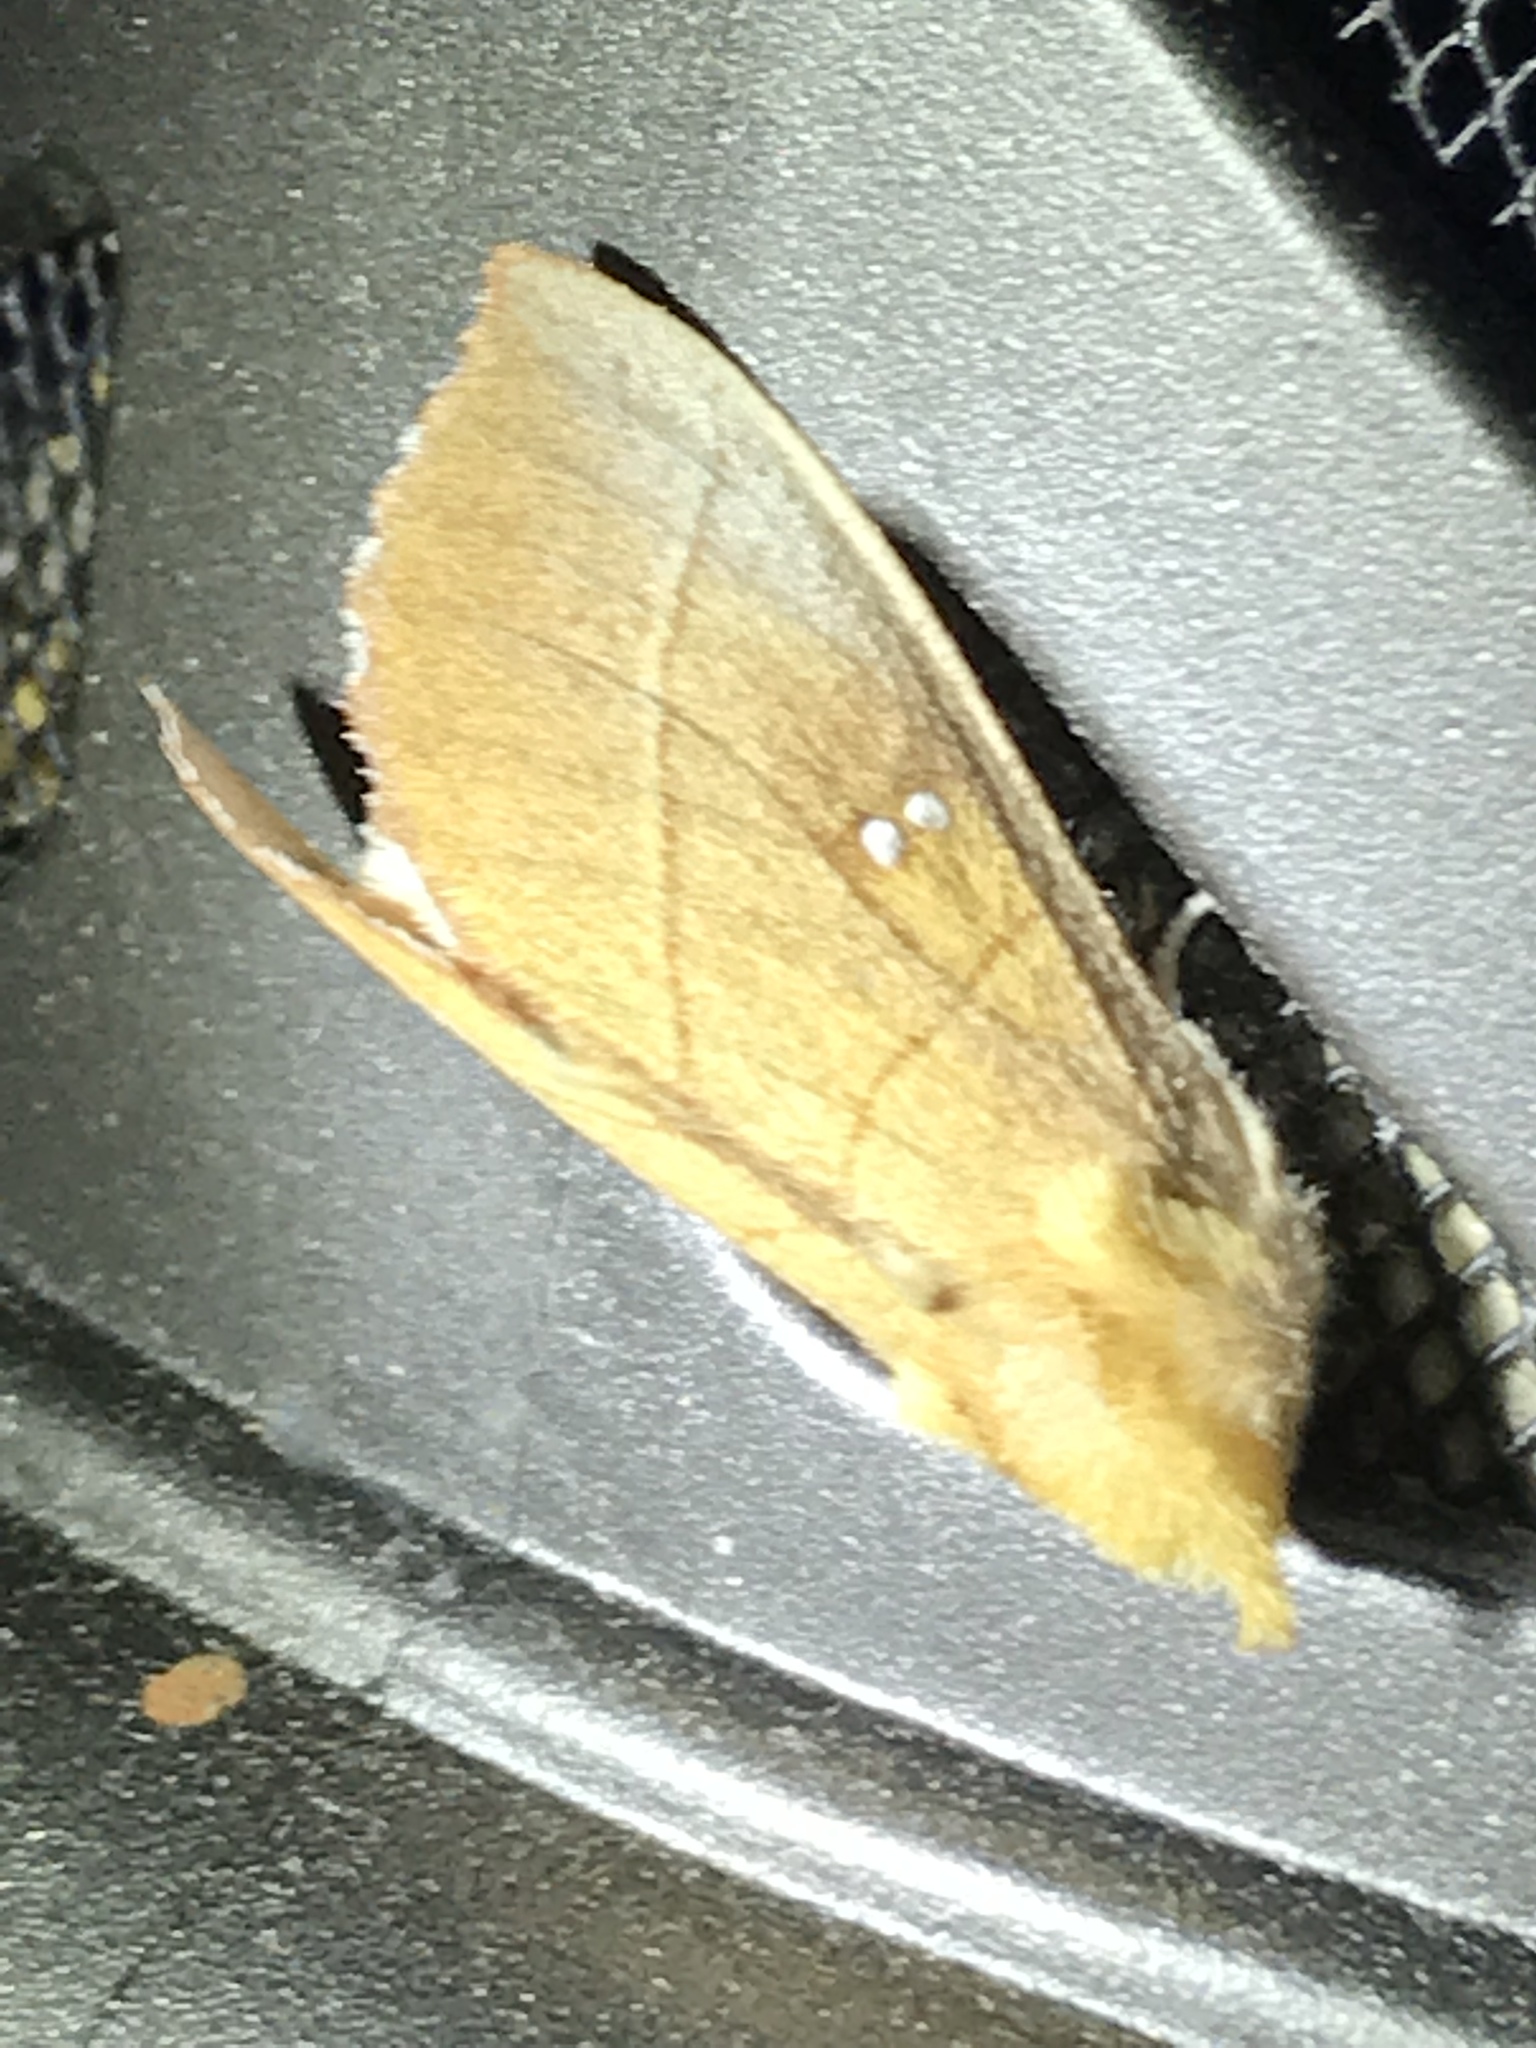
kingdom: Animalia
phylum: Arthropoda
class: Insecta
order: Lepidoptera
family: Notodontidae
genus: Nadata
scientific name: Nadata gibbosa
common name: White-dotted prominent
